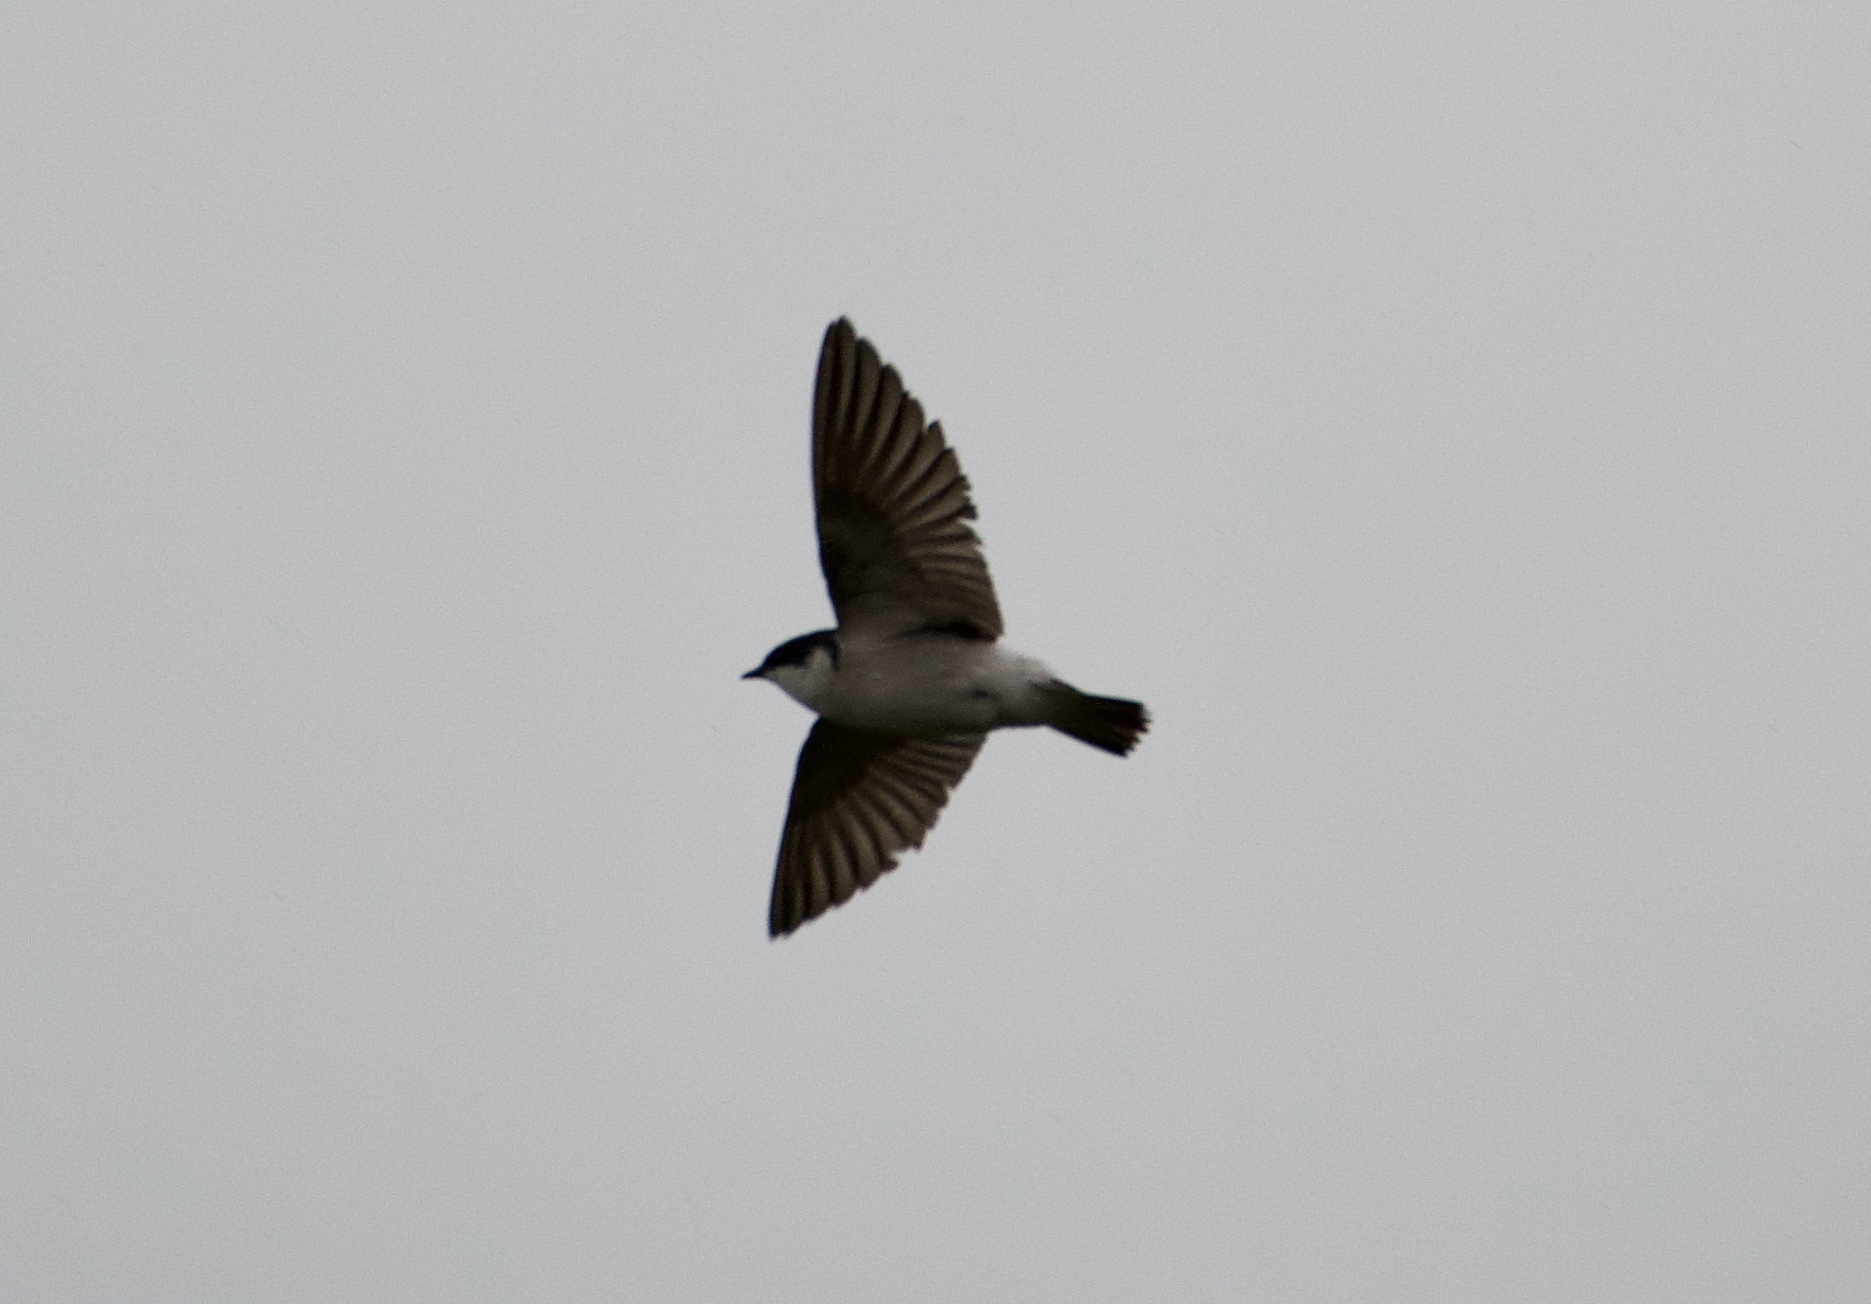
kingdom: Animalia
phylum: Chordata
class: Aves
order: Passeriformes
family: Hirundinidae
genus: Tachycineta
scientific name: Tachycineta albilinea
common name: Mangrove swallow
